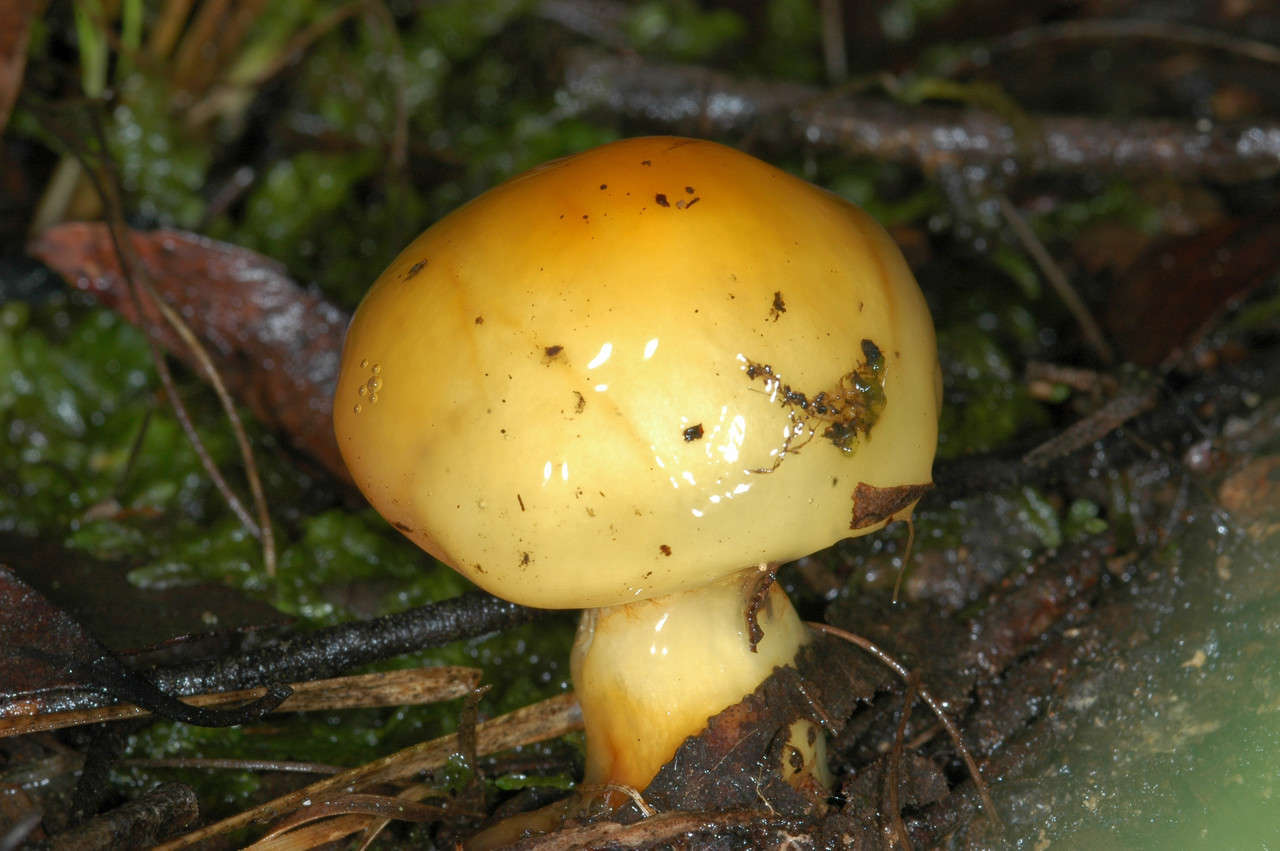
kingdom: Fungi
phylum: Basidiomycota
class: Agaricomycetes
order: Agaricales
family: Cortinariaceae
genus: Cortinarius
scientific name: Cortinarius sinapicolor
